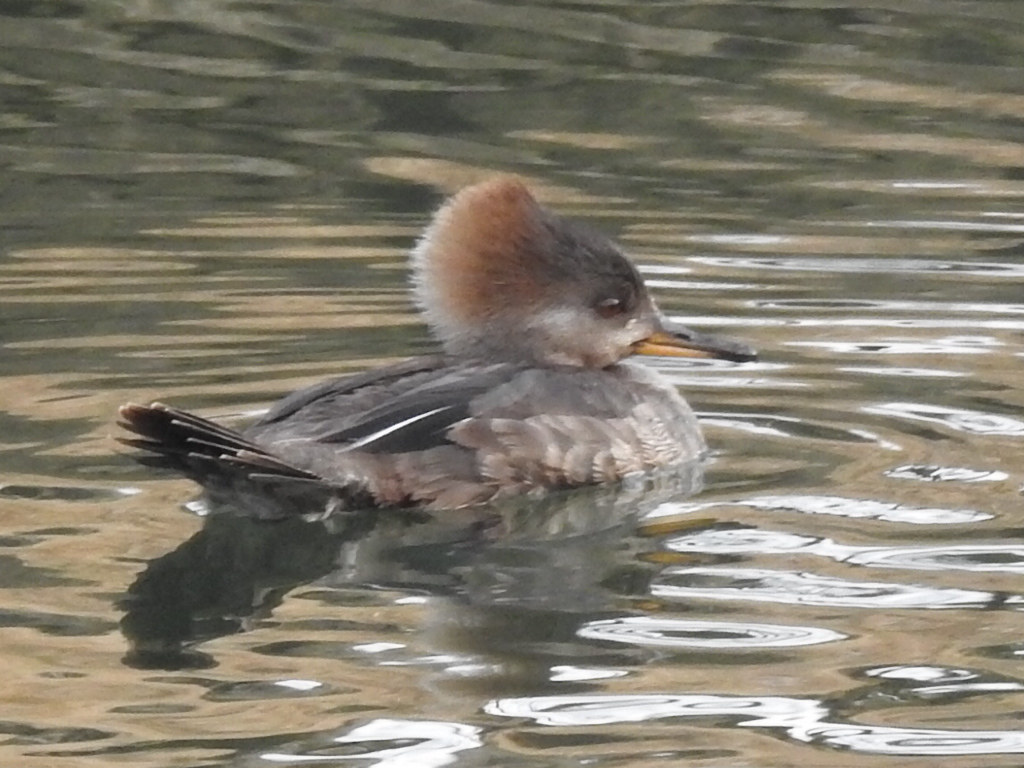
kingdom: Animalia
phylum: Chordata
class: Aves
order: Anseriformes
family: Anatidae
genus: Lophodytes
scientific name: Lophodytes cucullatus
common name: Hooded merganser
